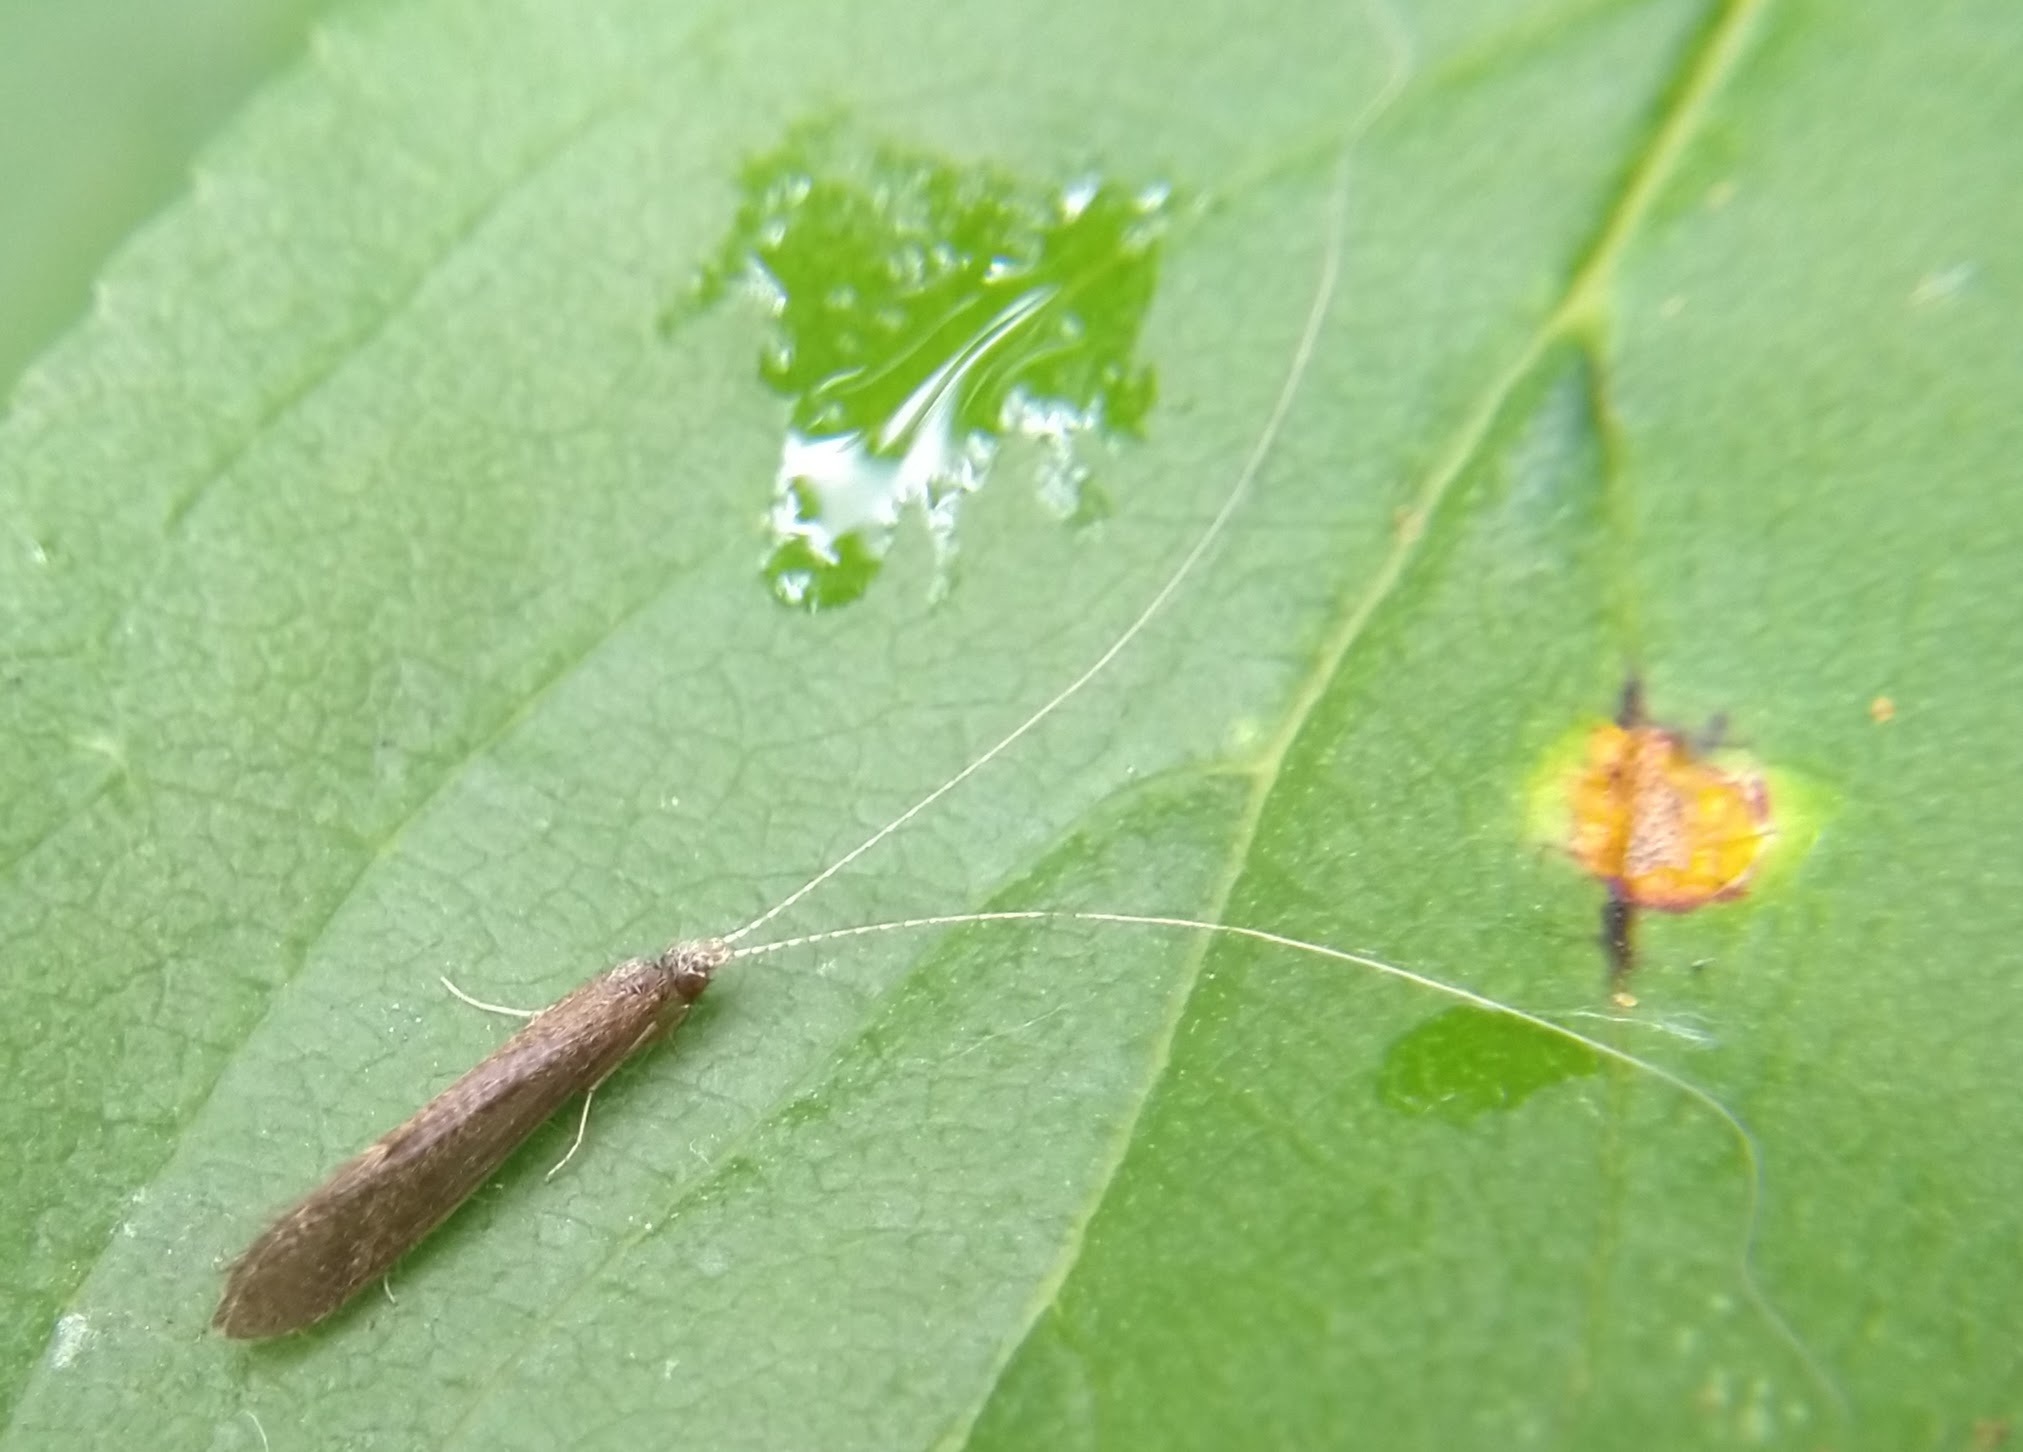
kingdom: Animalia
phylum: Arthropoda
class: Insecta
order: Trichoptera
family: Leptoceridae
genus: Leptocerus
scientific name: Leptocerus americanus
